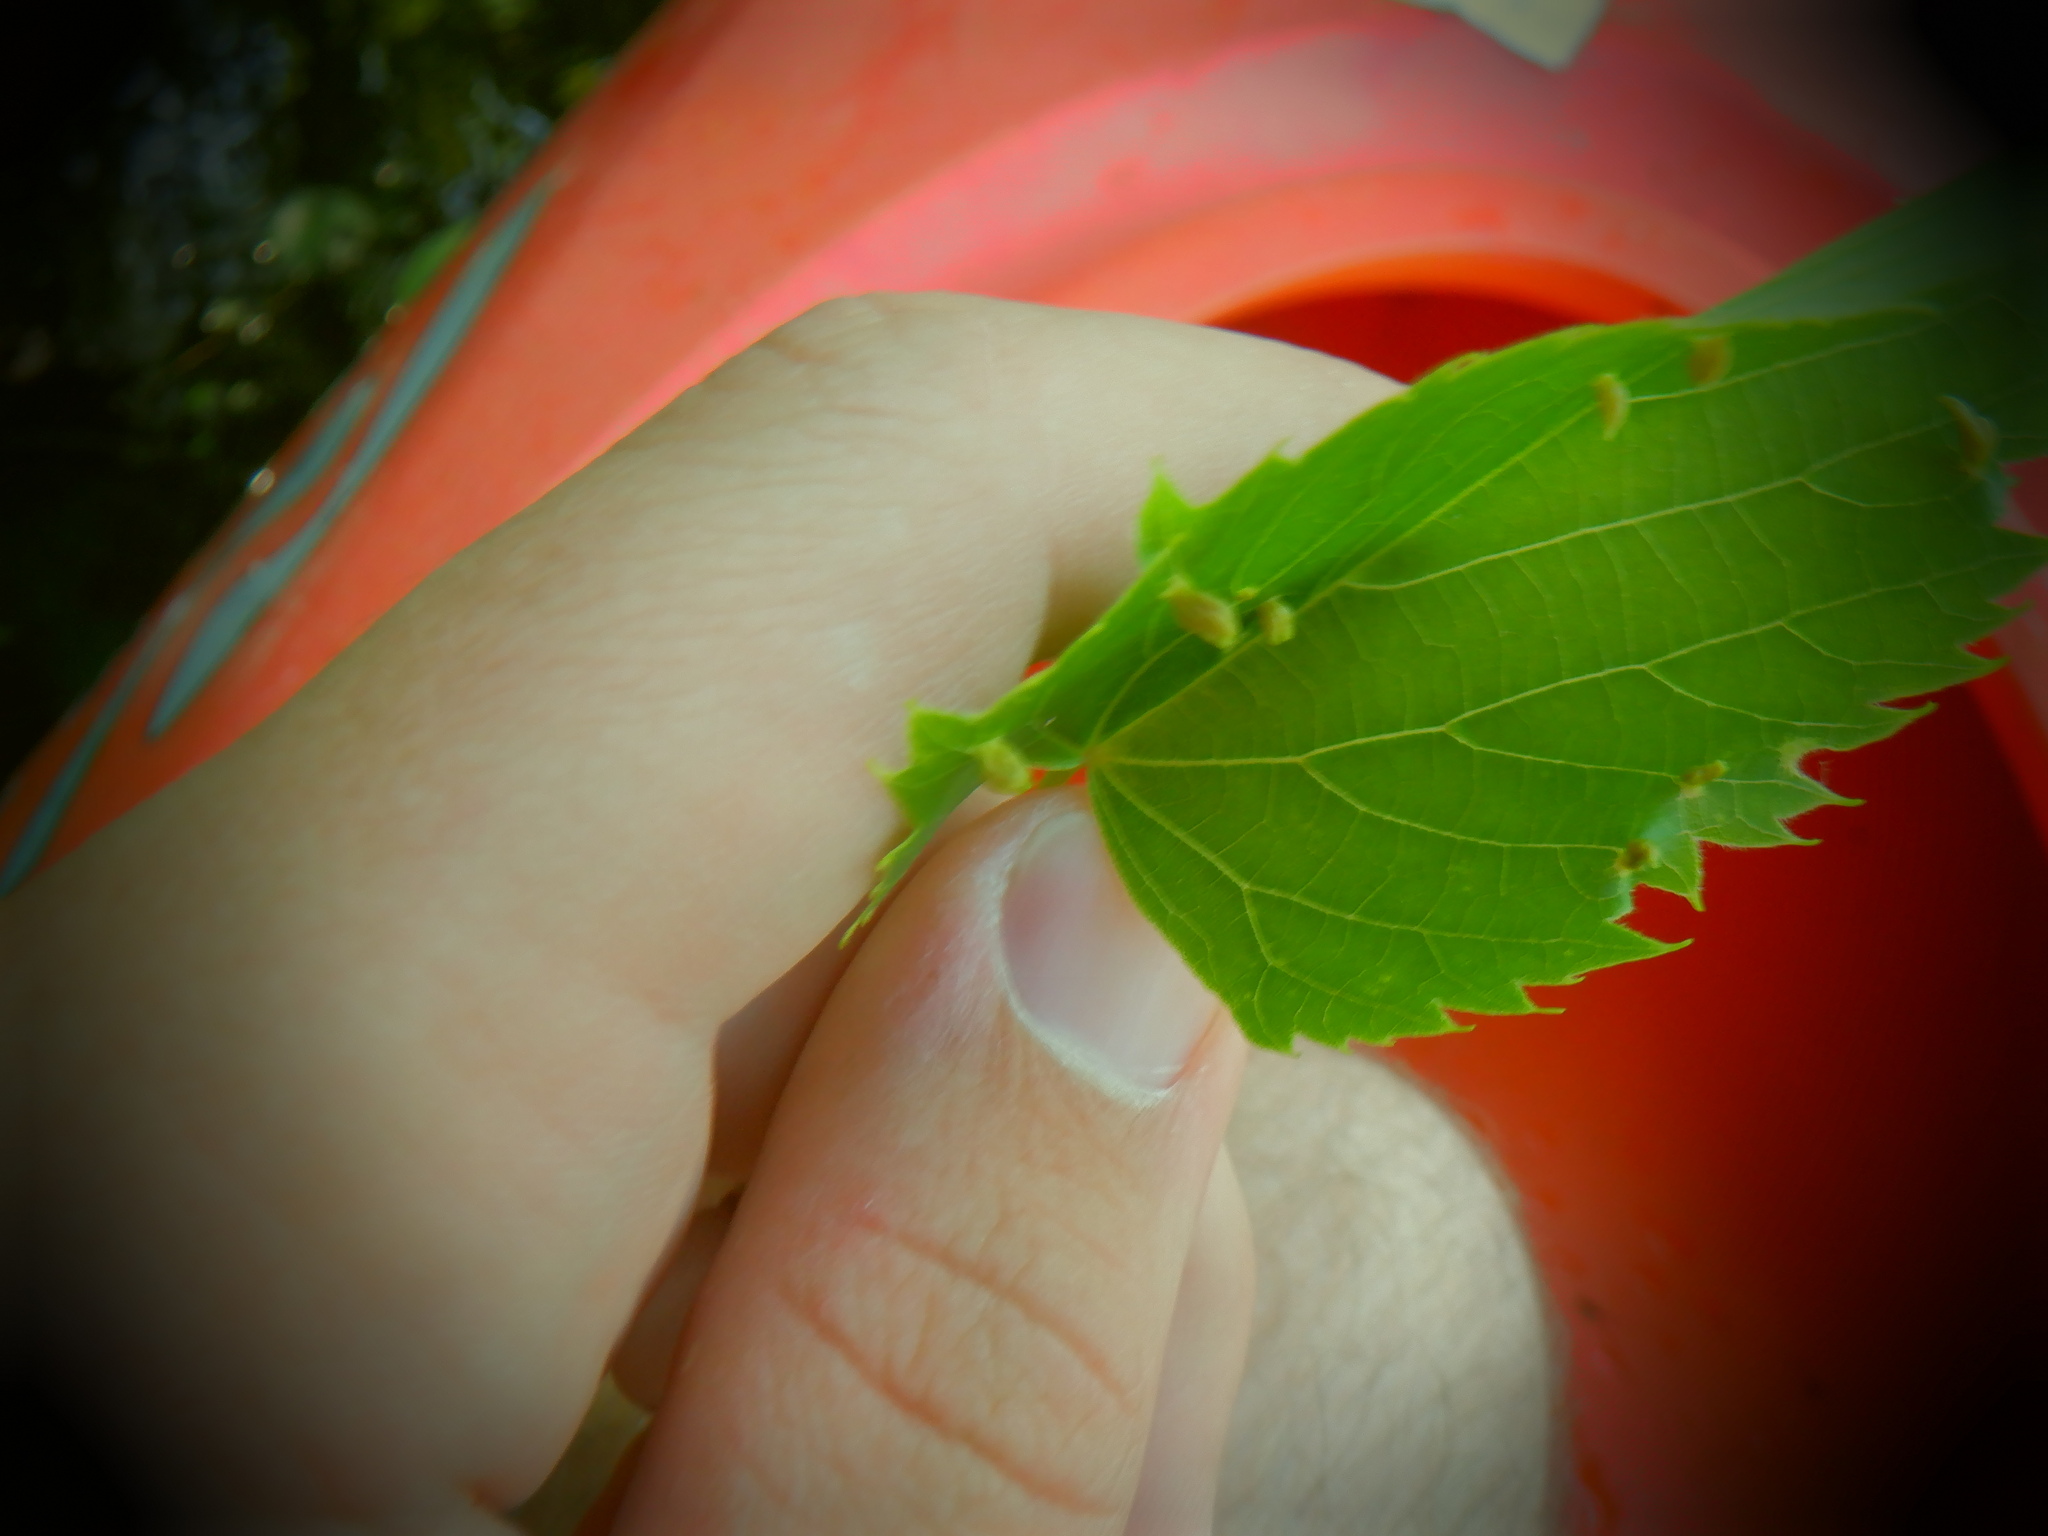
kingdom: Animalia
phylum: Arthropoda
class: Arachnida
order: Trombidiformes
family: Eriophyidae
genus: Eriophyes
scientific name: Eriophyes tiliae
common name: Red nail gall mite
